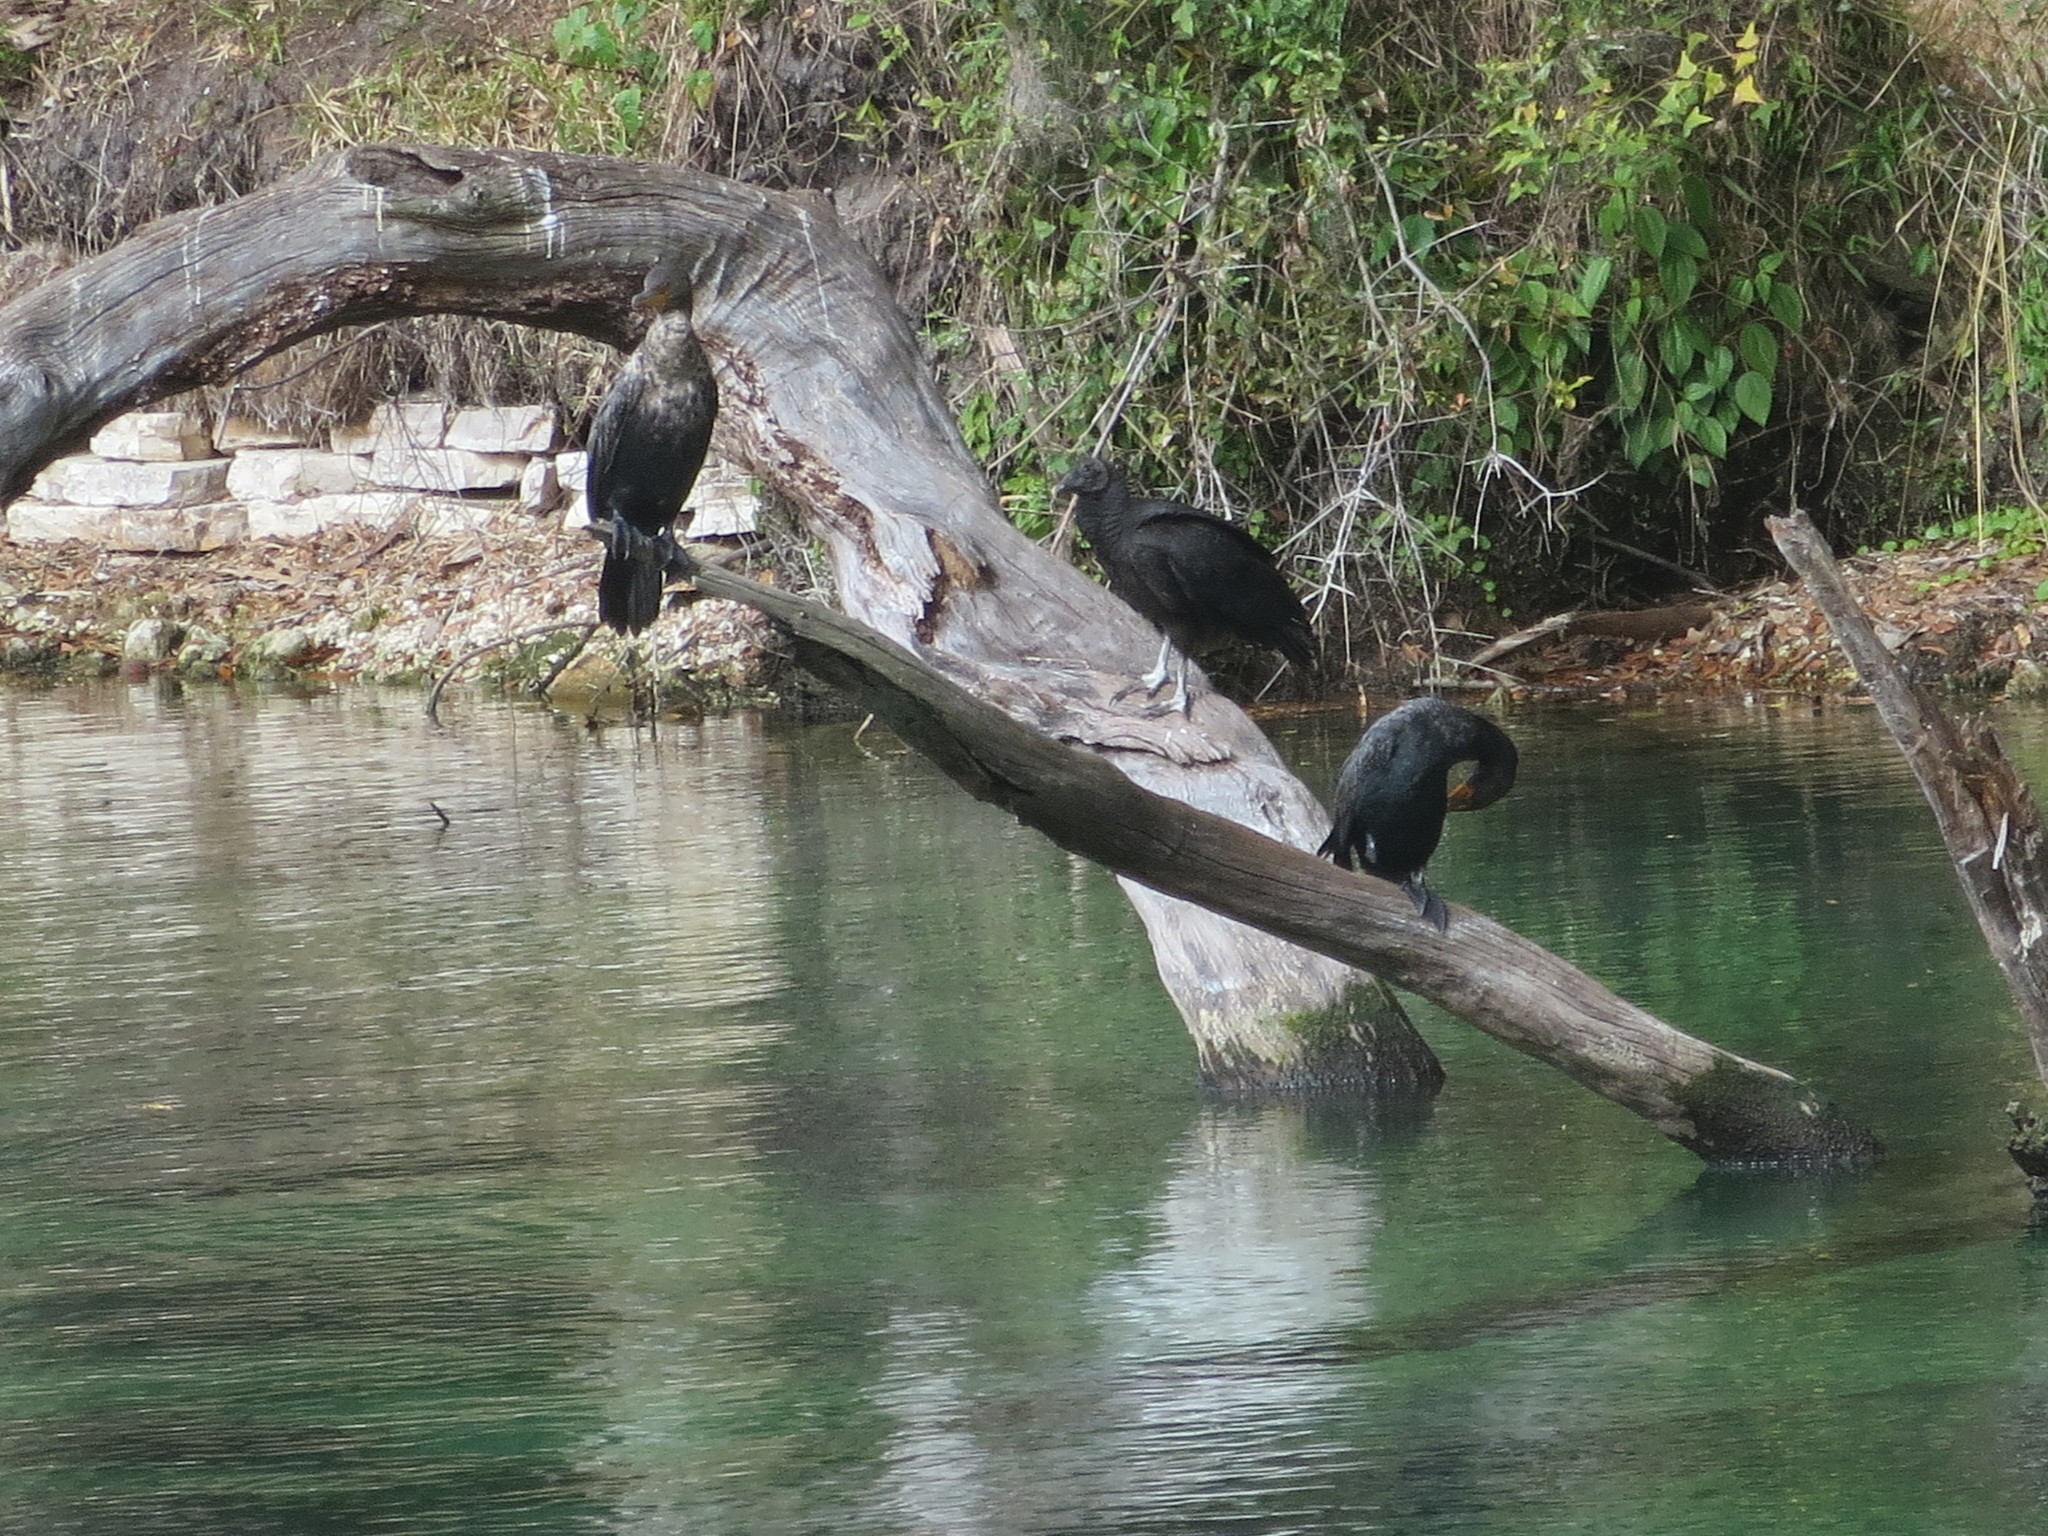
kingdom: Animalia
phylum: Chordata
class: Aves
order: Suliformes
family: Phalacrocoracidae
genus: Phalacrocorax
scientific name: Phalacrocorax auritus
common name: Double-crested cormorant
